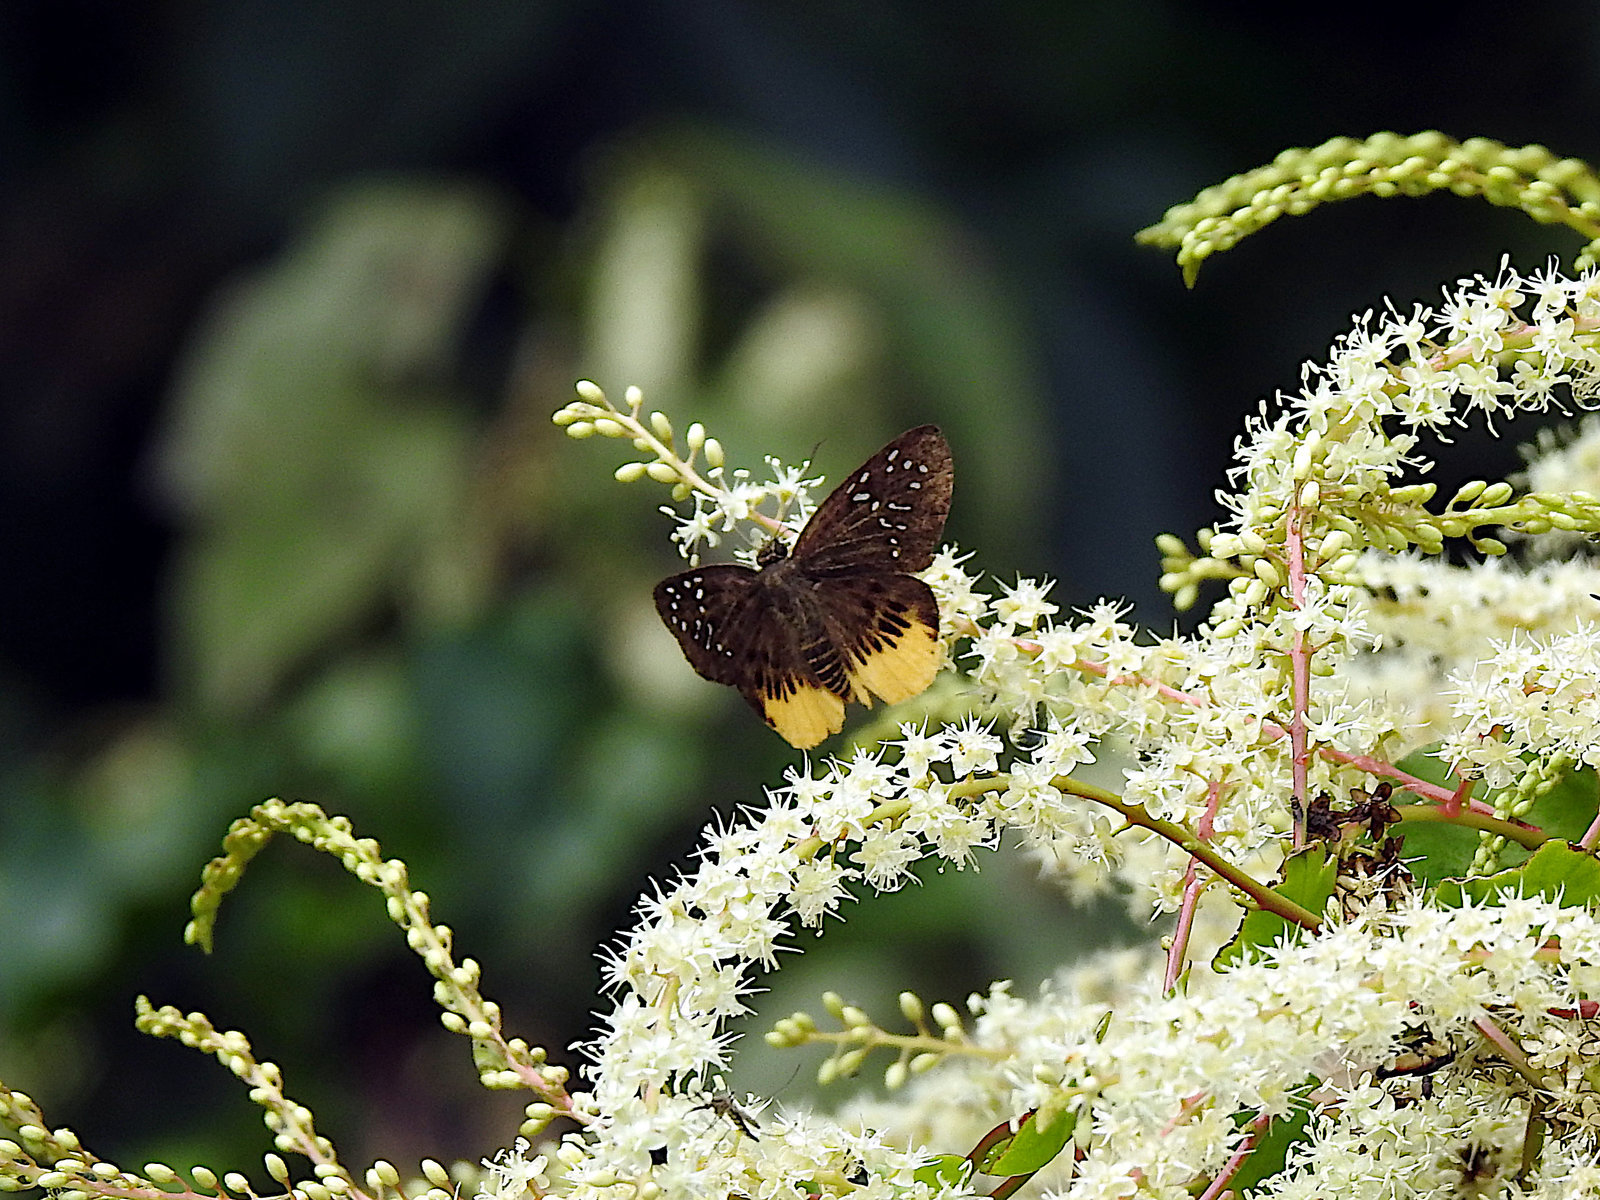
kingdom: Animalia
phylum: Arthropoda
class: Insecta
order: Lepidoptera
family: Hesperiidae
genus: Mooreana
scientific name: Mooreana trichoneura
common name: Yellow flat
